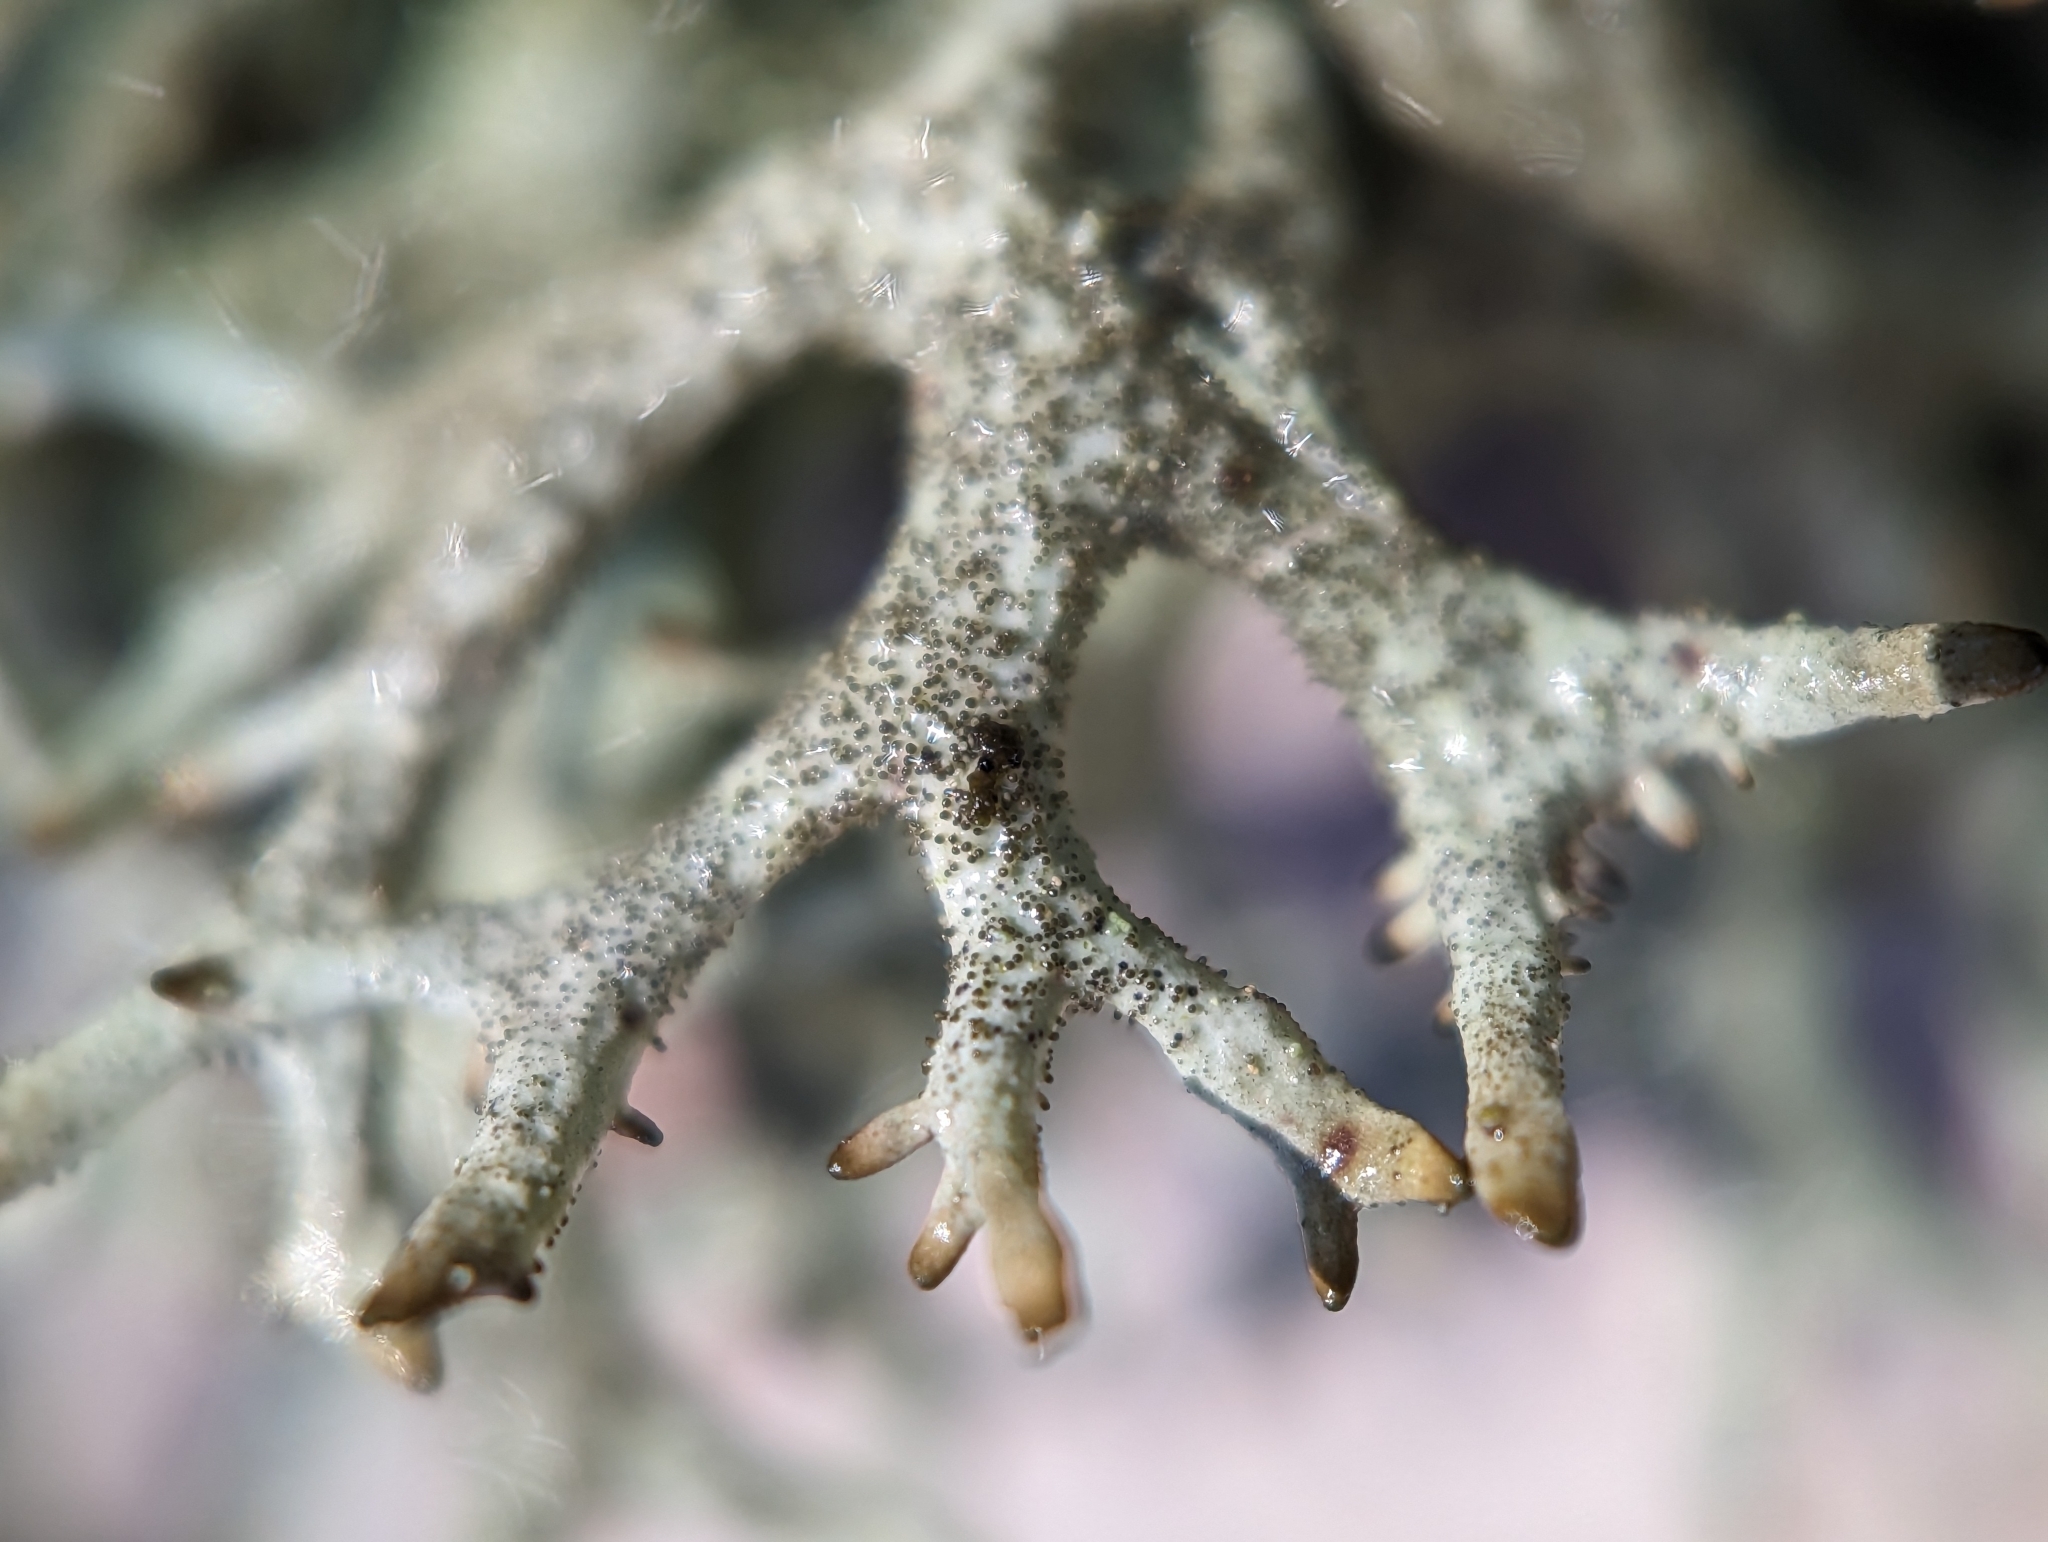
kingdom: Fungi
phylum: Ascomycota
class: Lecanoromycetes
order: Lecanorales
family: Parmeliaceae
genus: Pseudevernia
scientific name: Pseudevernia furfuracea
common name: Tree moss
